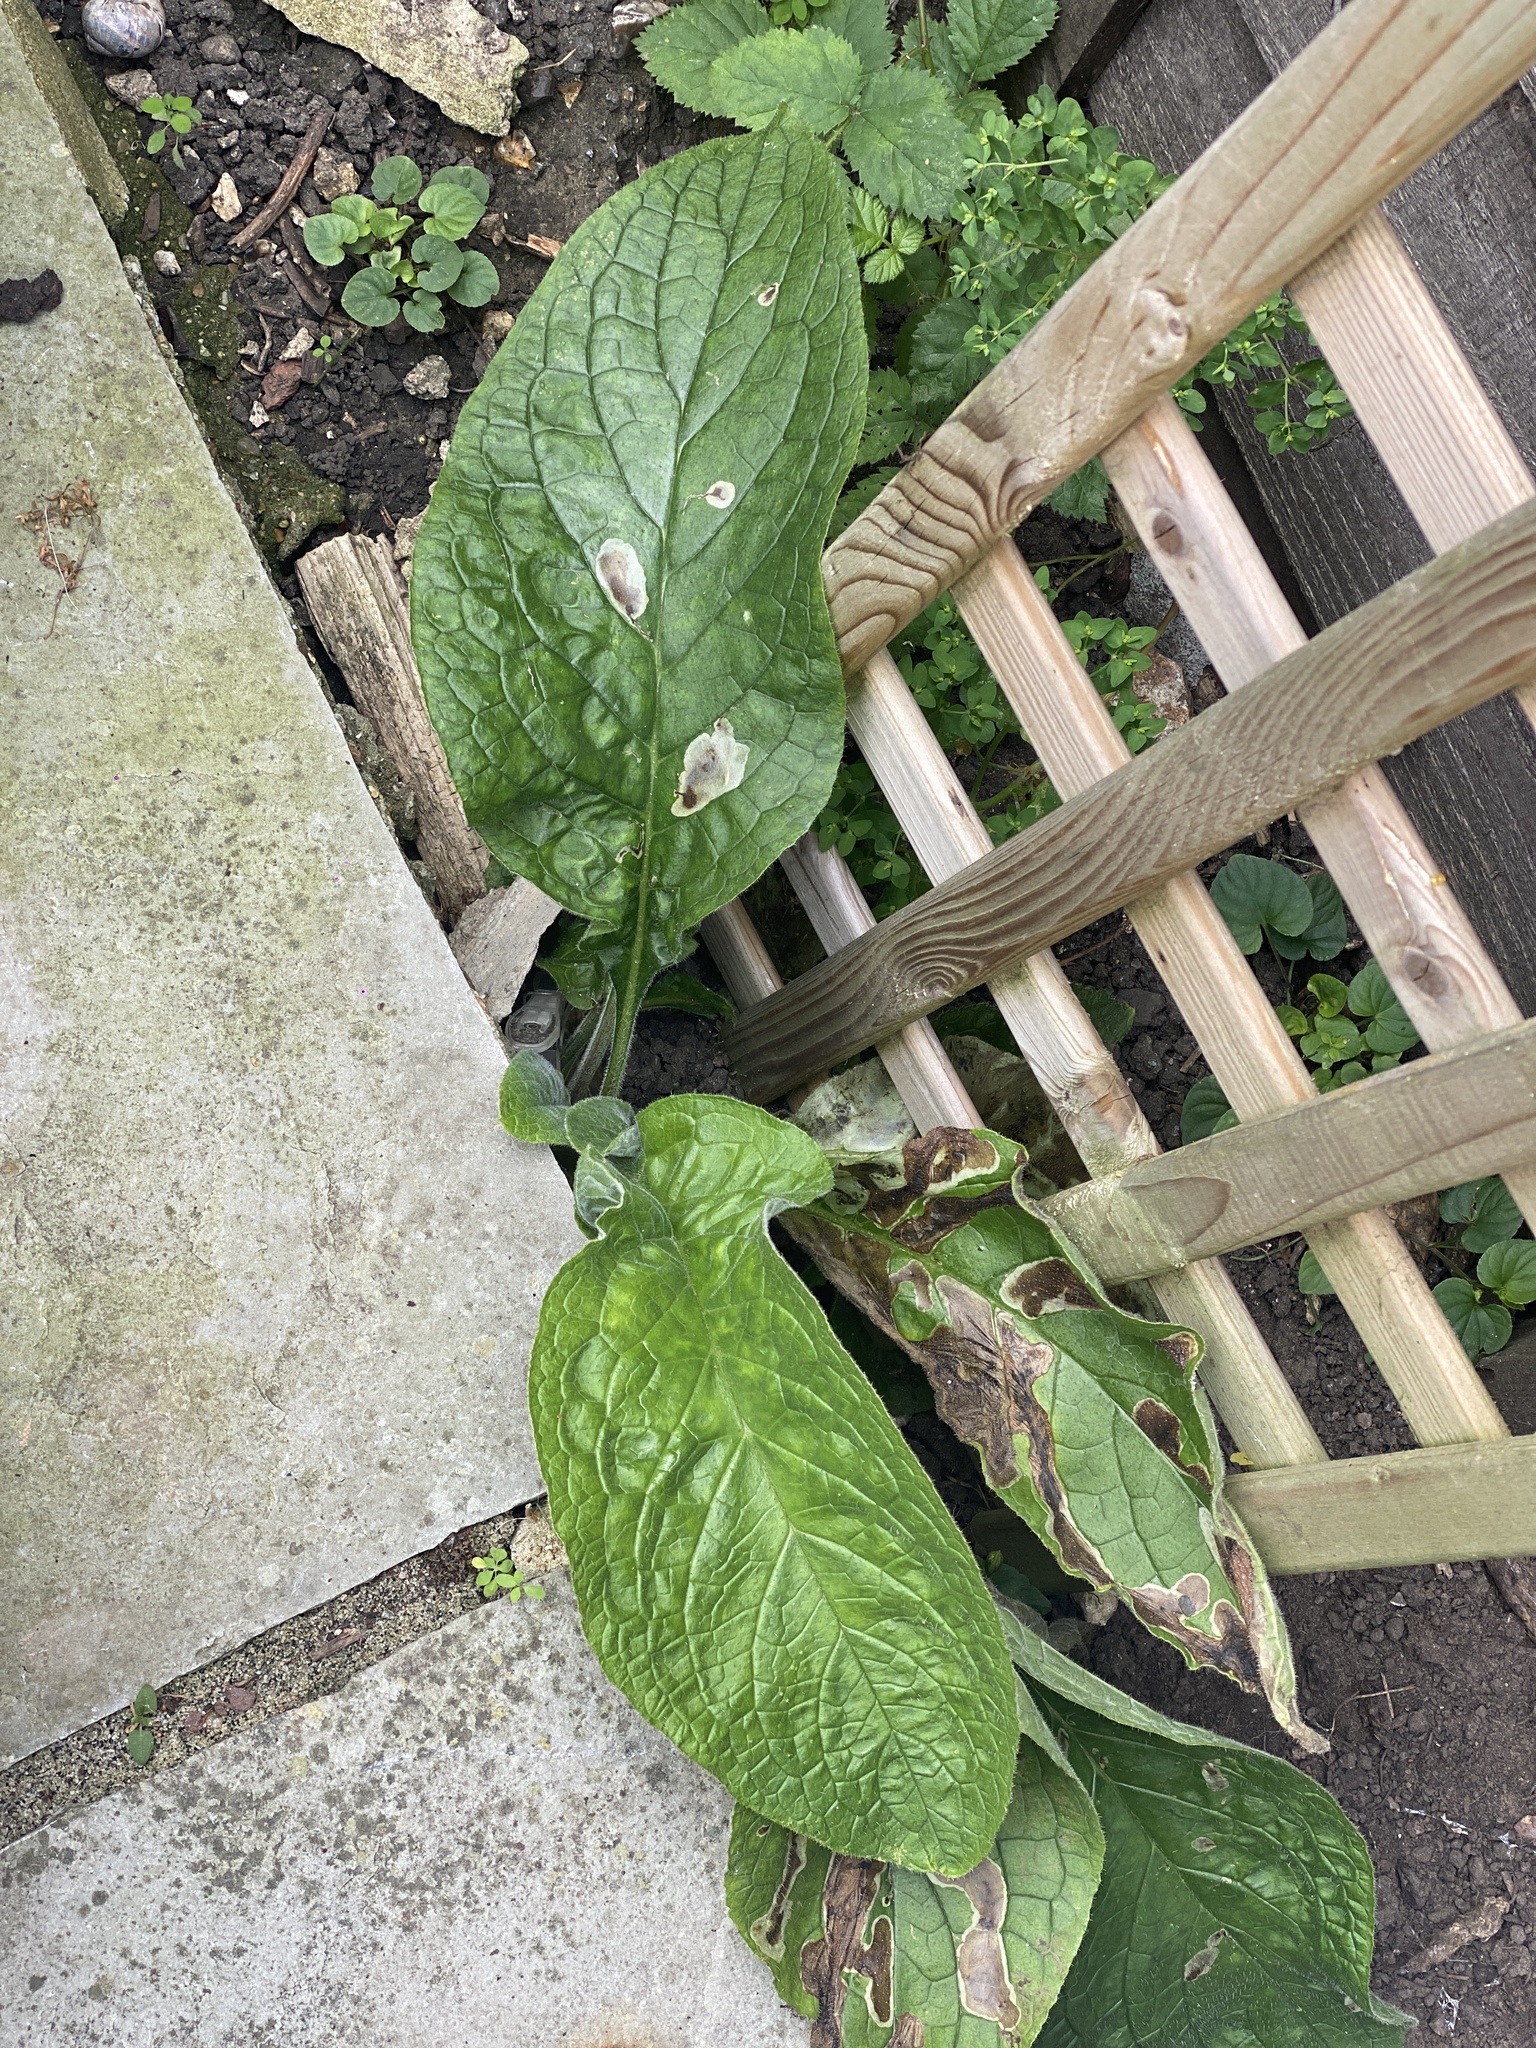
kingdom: Plantae
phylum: Tracheophyta
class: Magnoliopsida
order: Boraginales
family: Boraginaceae
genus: Pentaglottis
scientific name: Pentaglottis sempervirens
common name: Green alkanet
